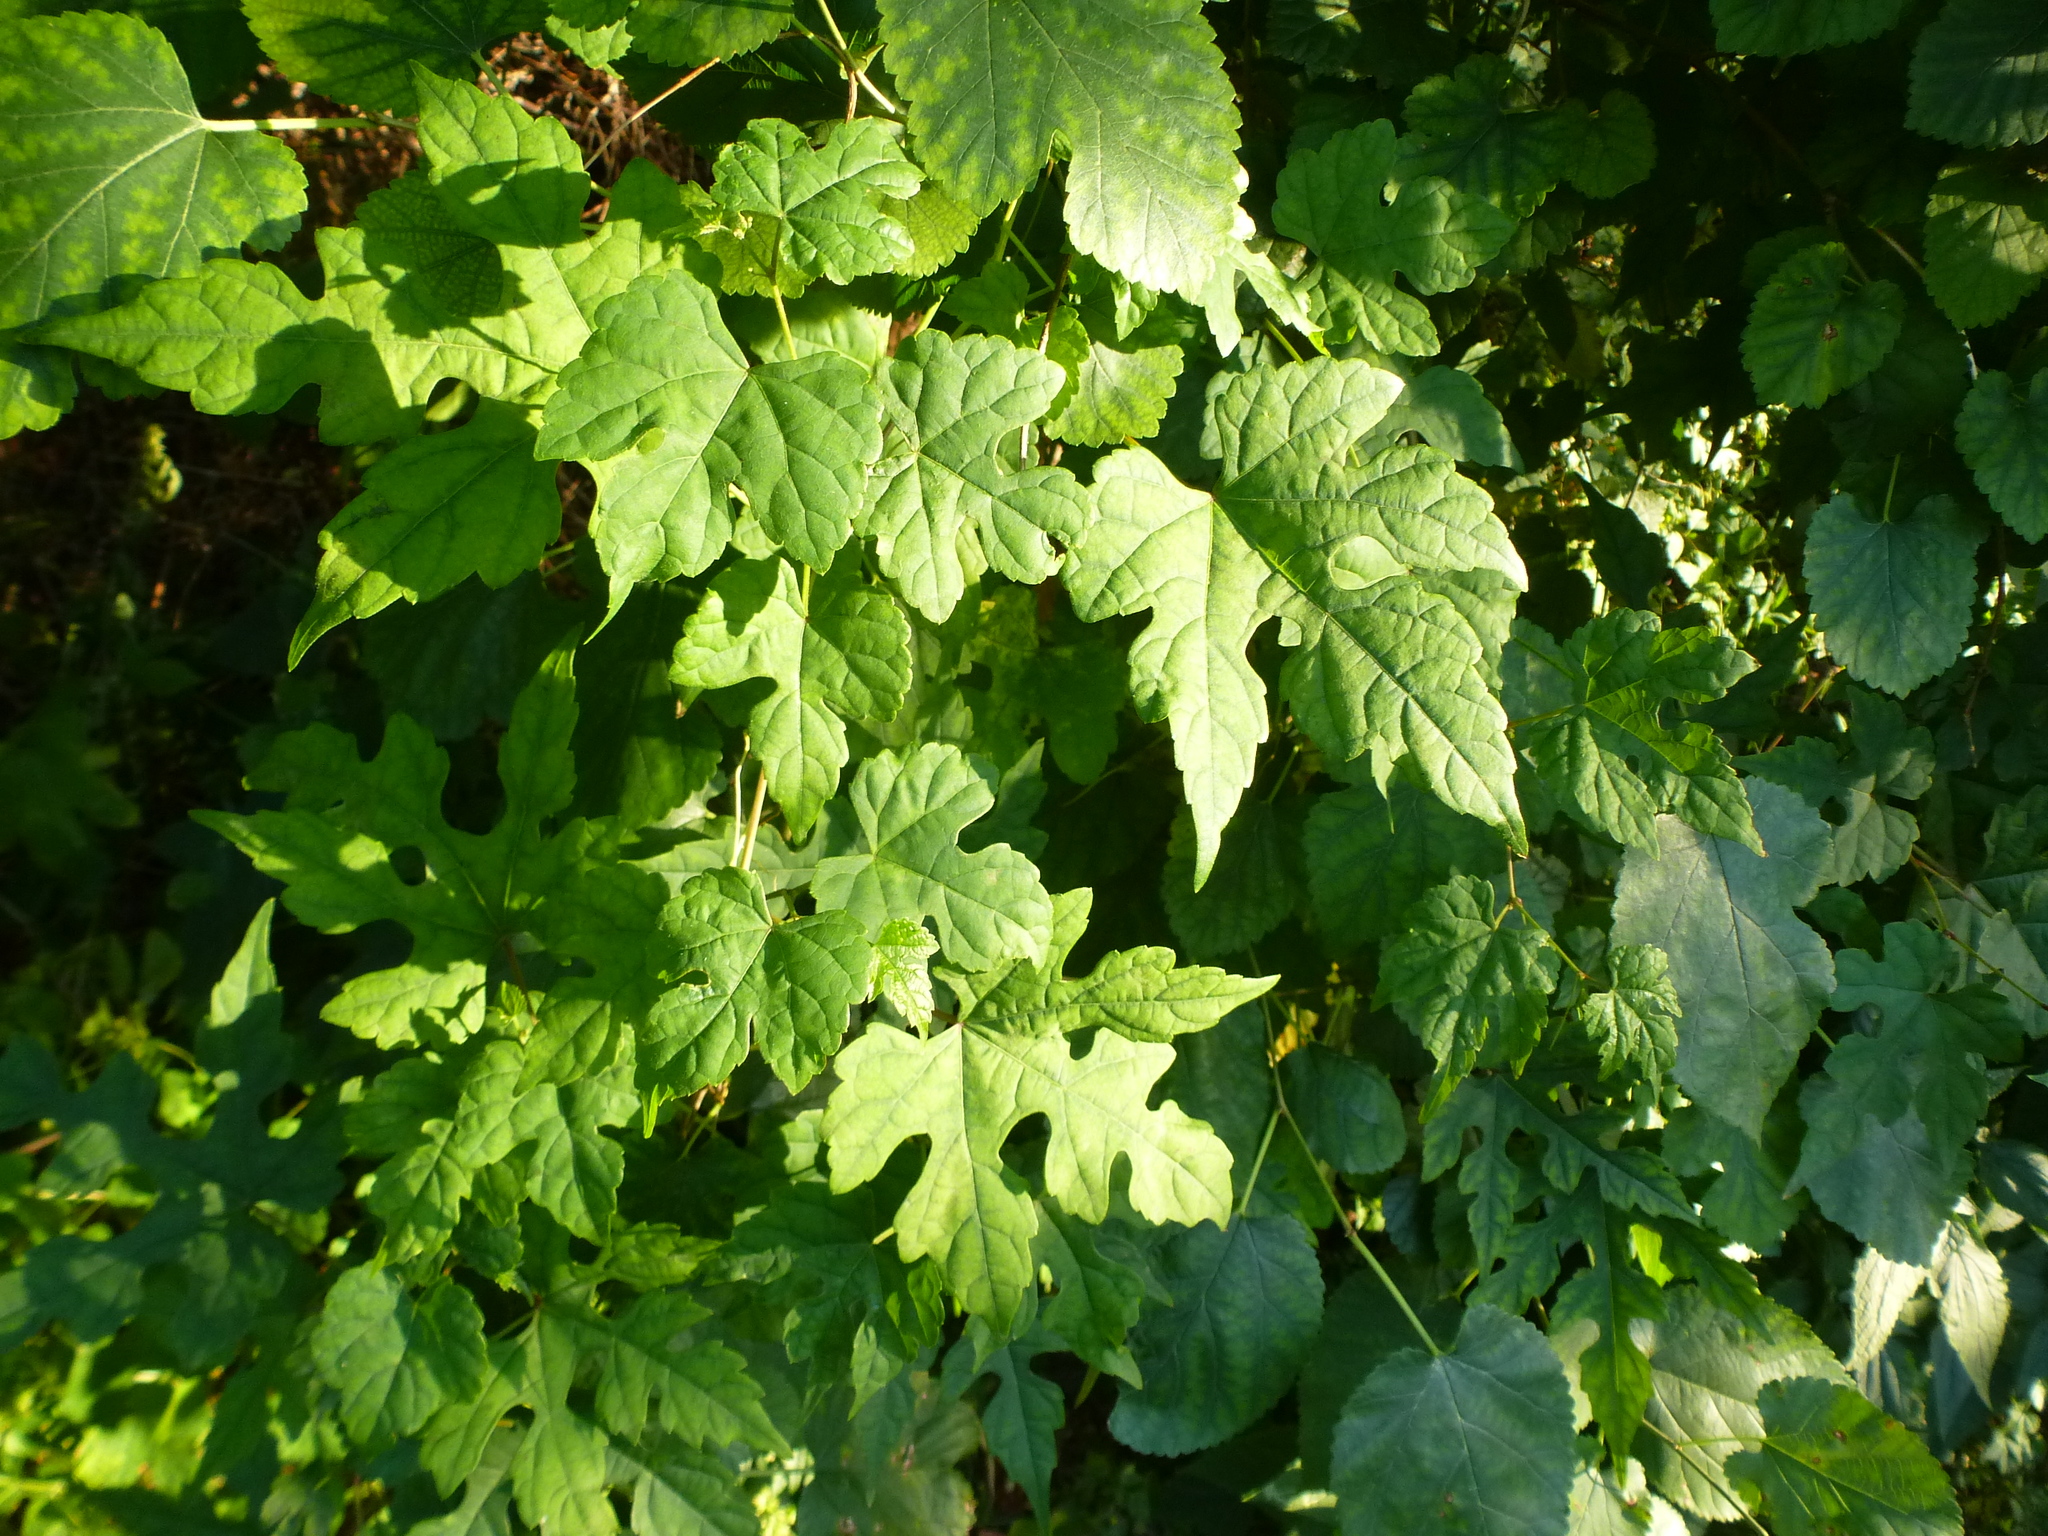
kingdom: Plantae
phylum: Tracheophyta
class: Magnoliopsida
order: Vitales
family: Vitaceae
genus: Ampelopsis
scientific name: Ampelopsis glandulosa
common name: Amur peppervine
